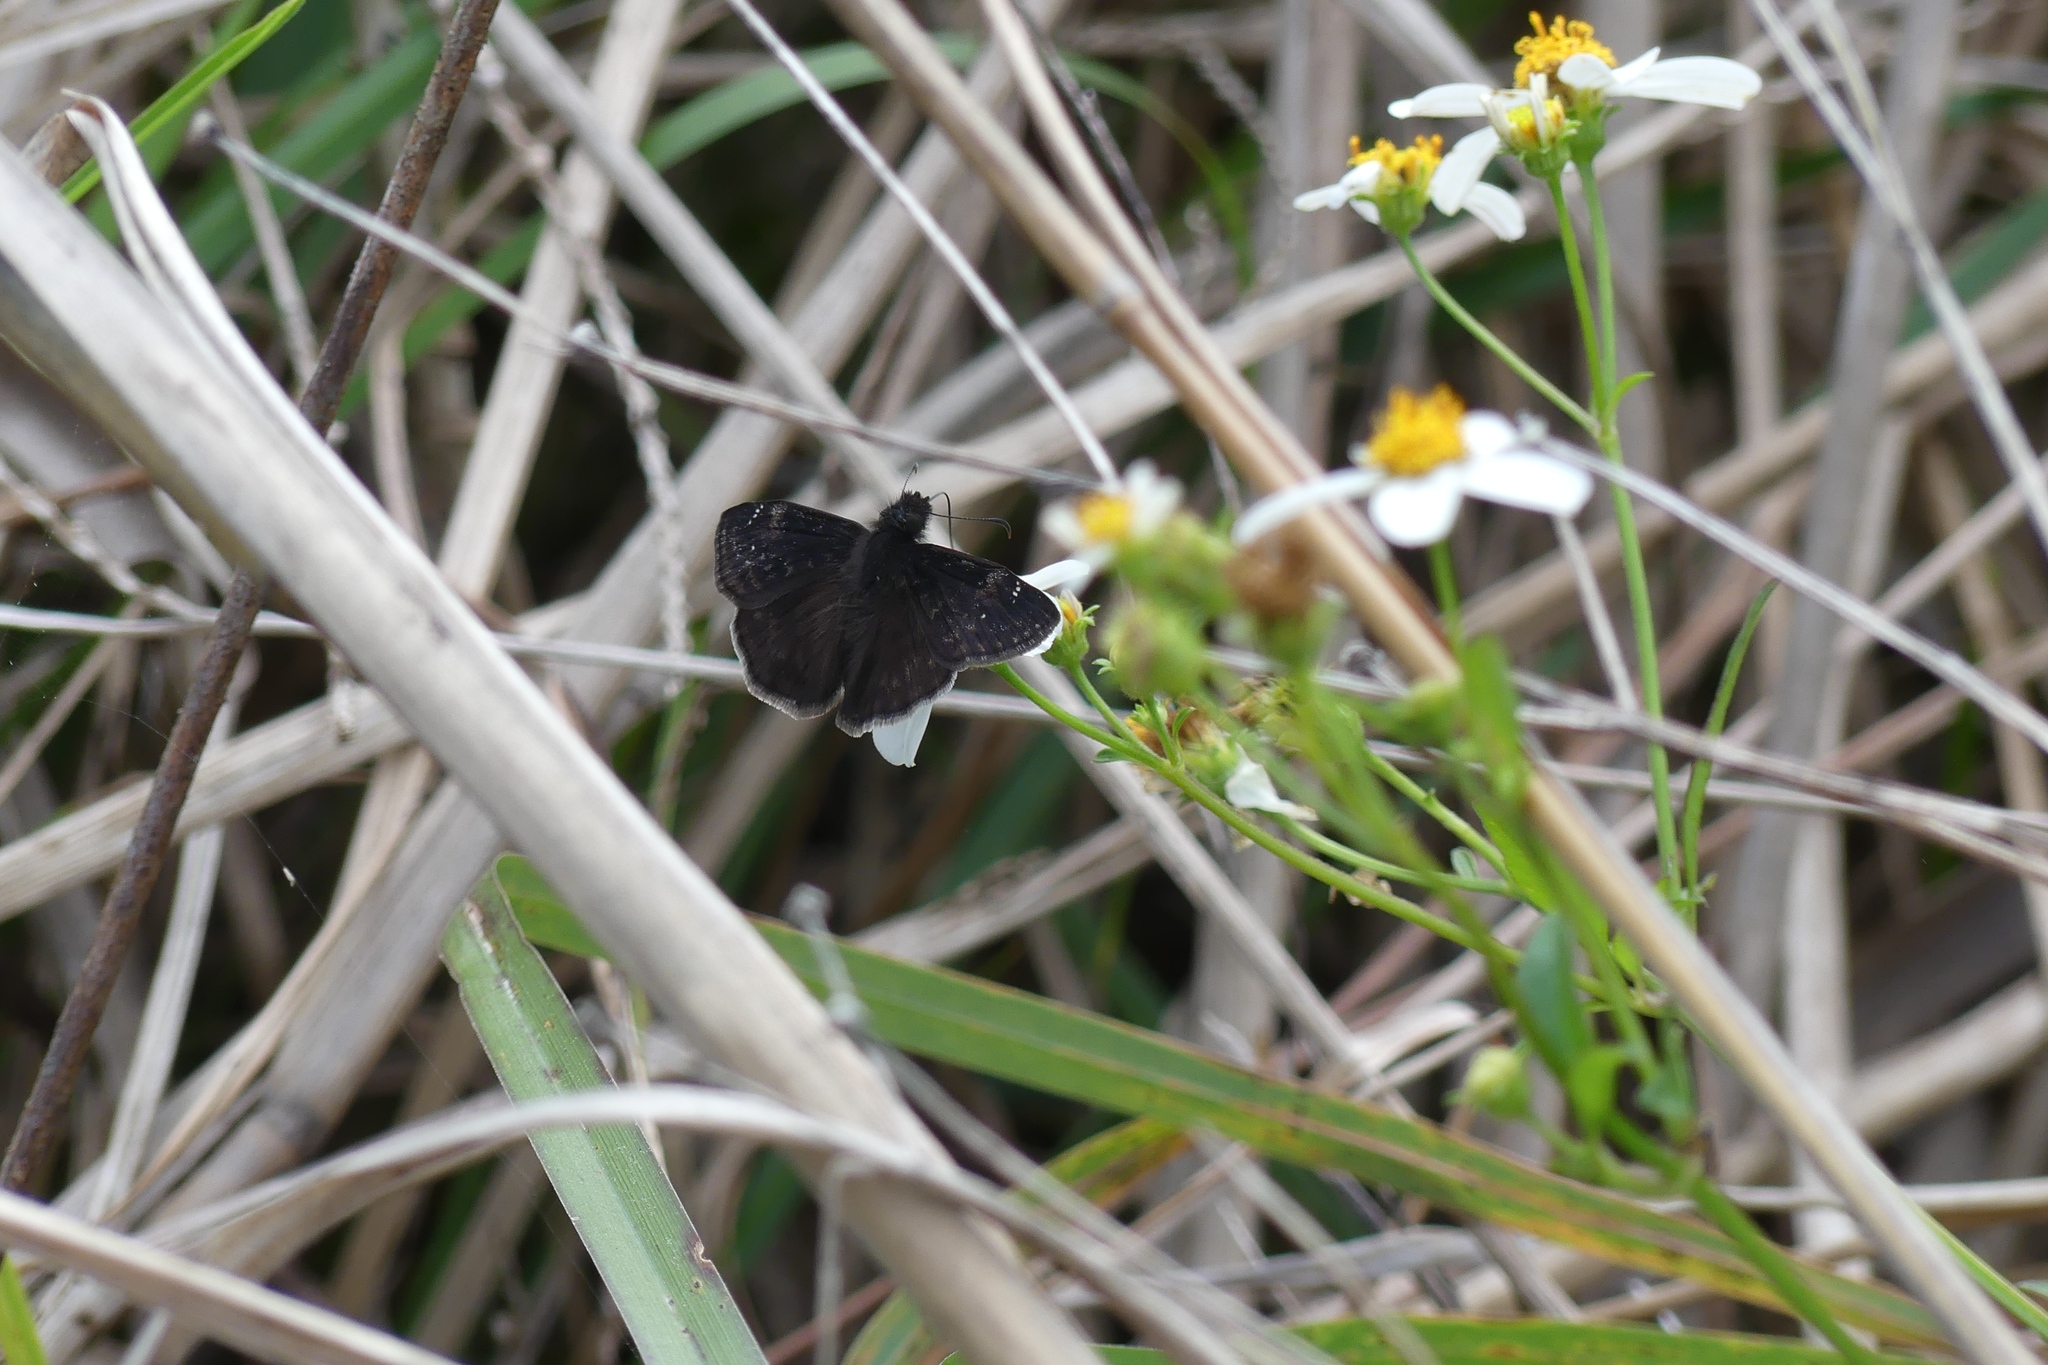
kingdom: Animalia
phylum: Arthropoda
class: Insecta
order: Lepidoptera
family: Hesperiidae
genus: Erynnis
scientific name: Erynnis zarucco
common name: Zarucco duskywing
